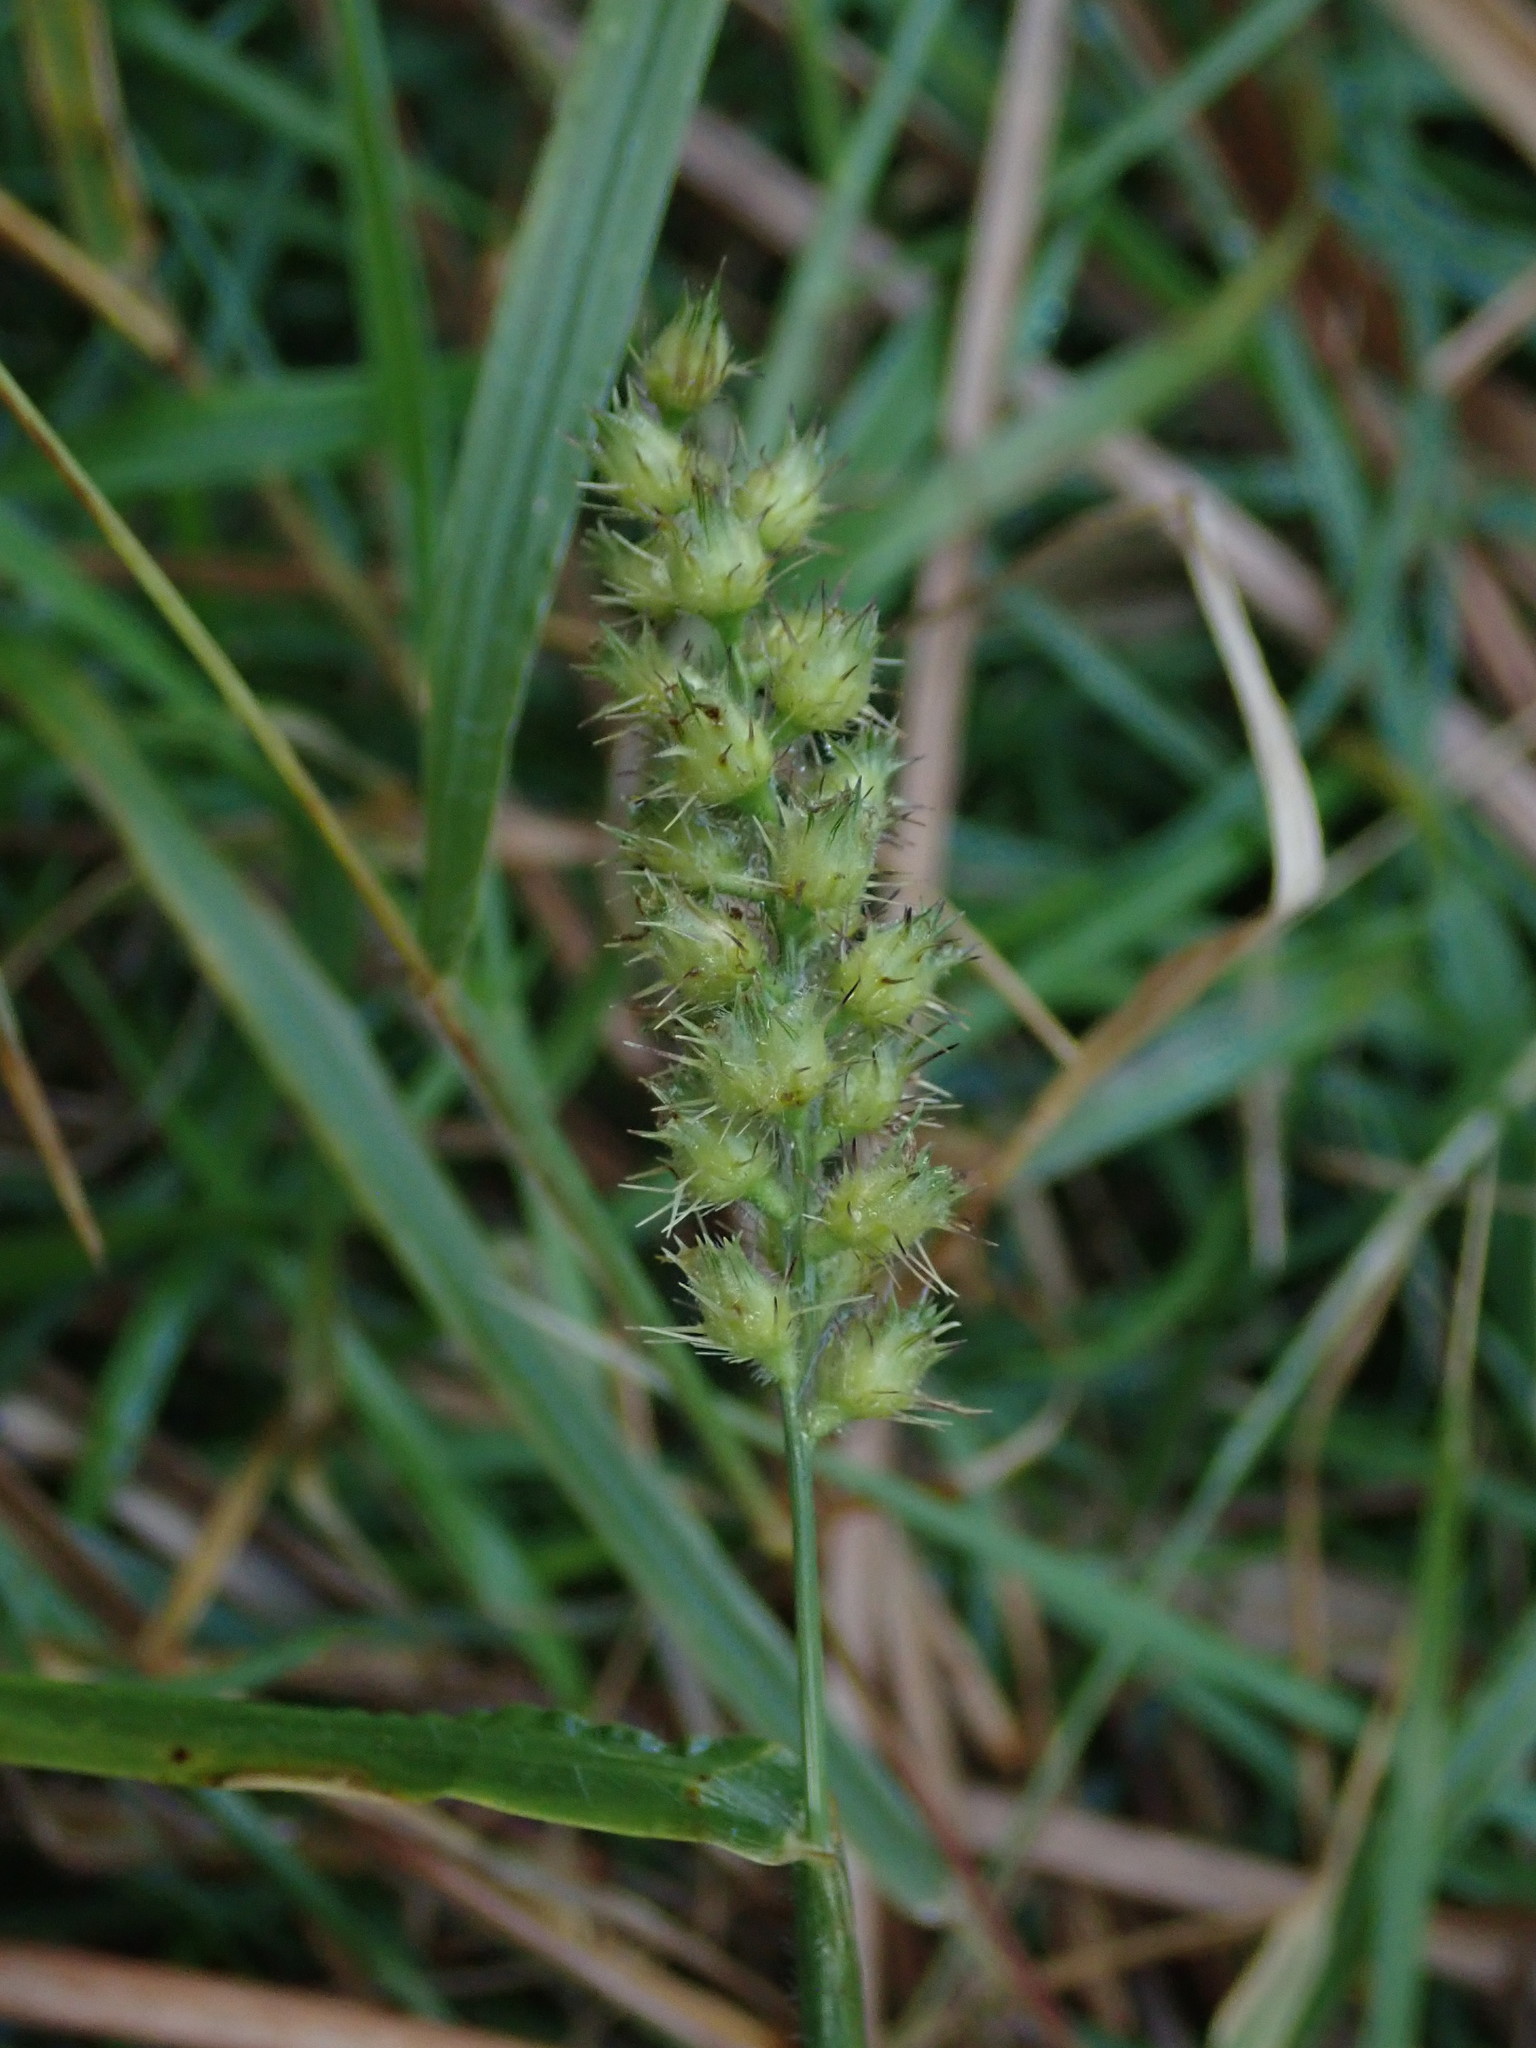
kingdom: Plantae
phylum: Tracheophyta
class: Liliopsida
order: Poales
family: Poaceae
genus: Cenchrus
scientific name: Cenchrus echinatus
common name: Southern sandbur
